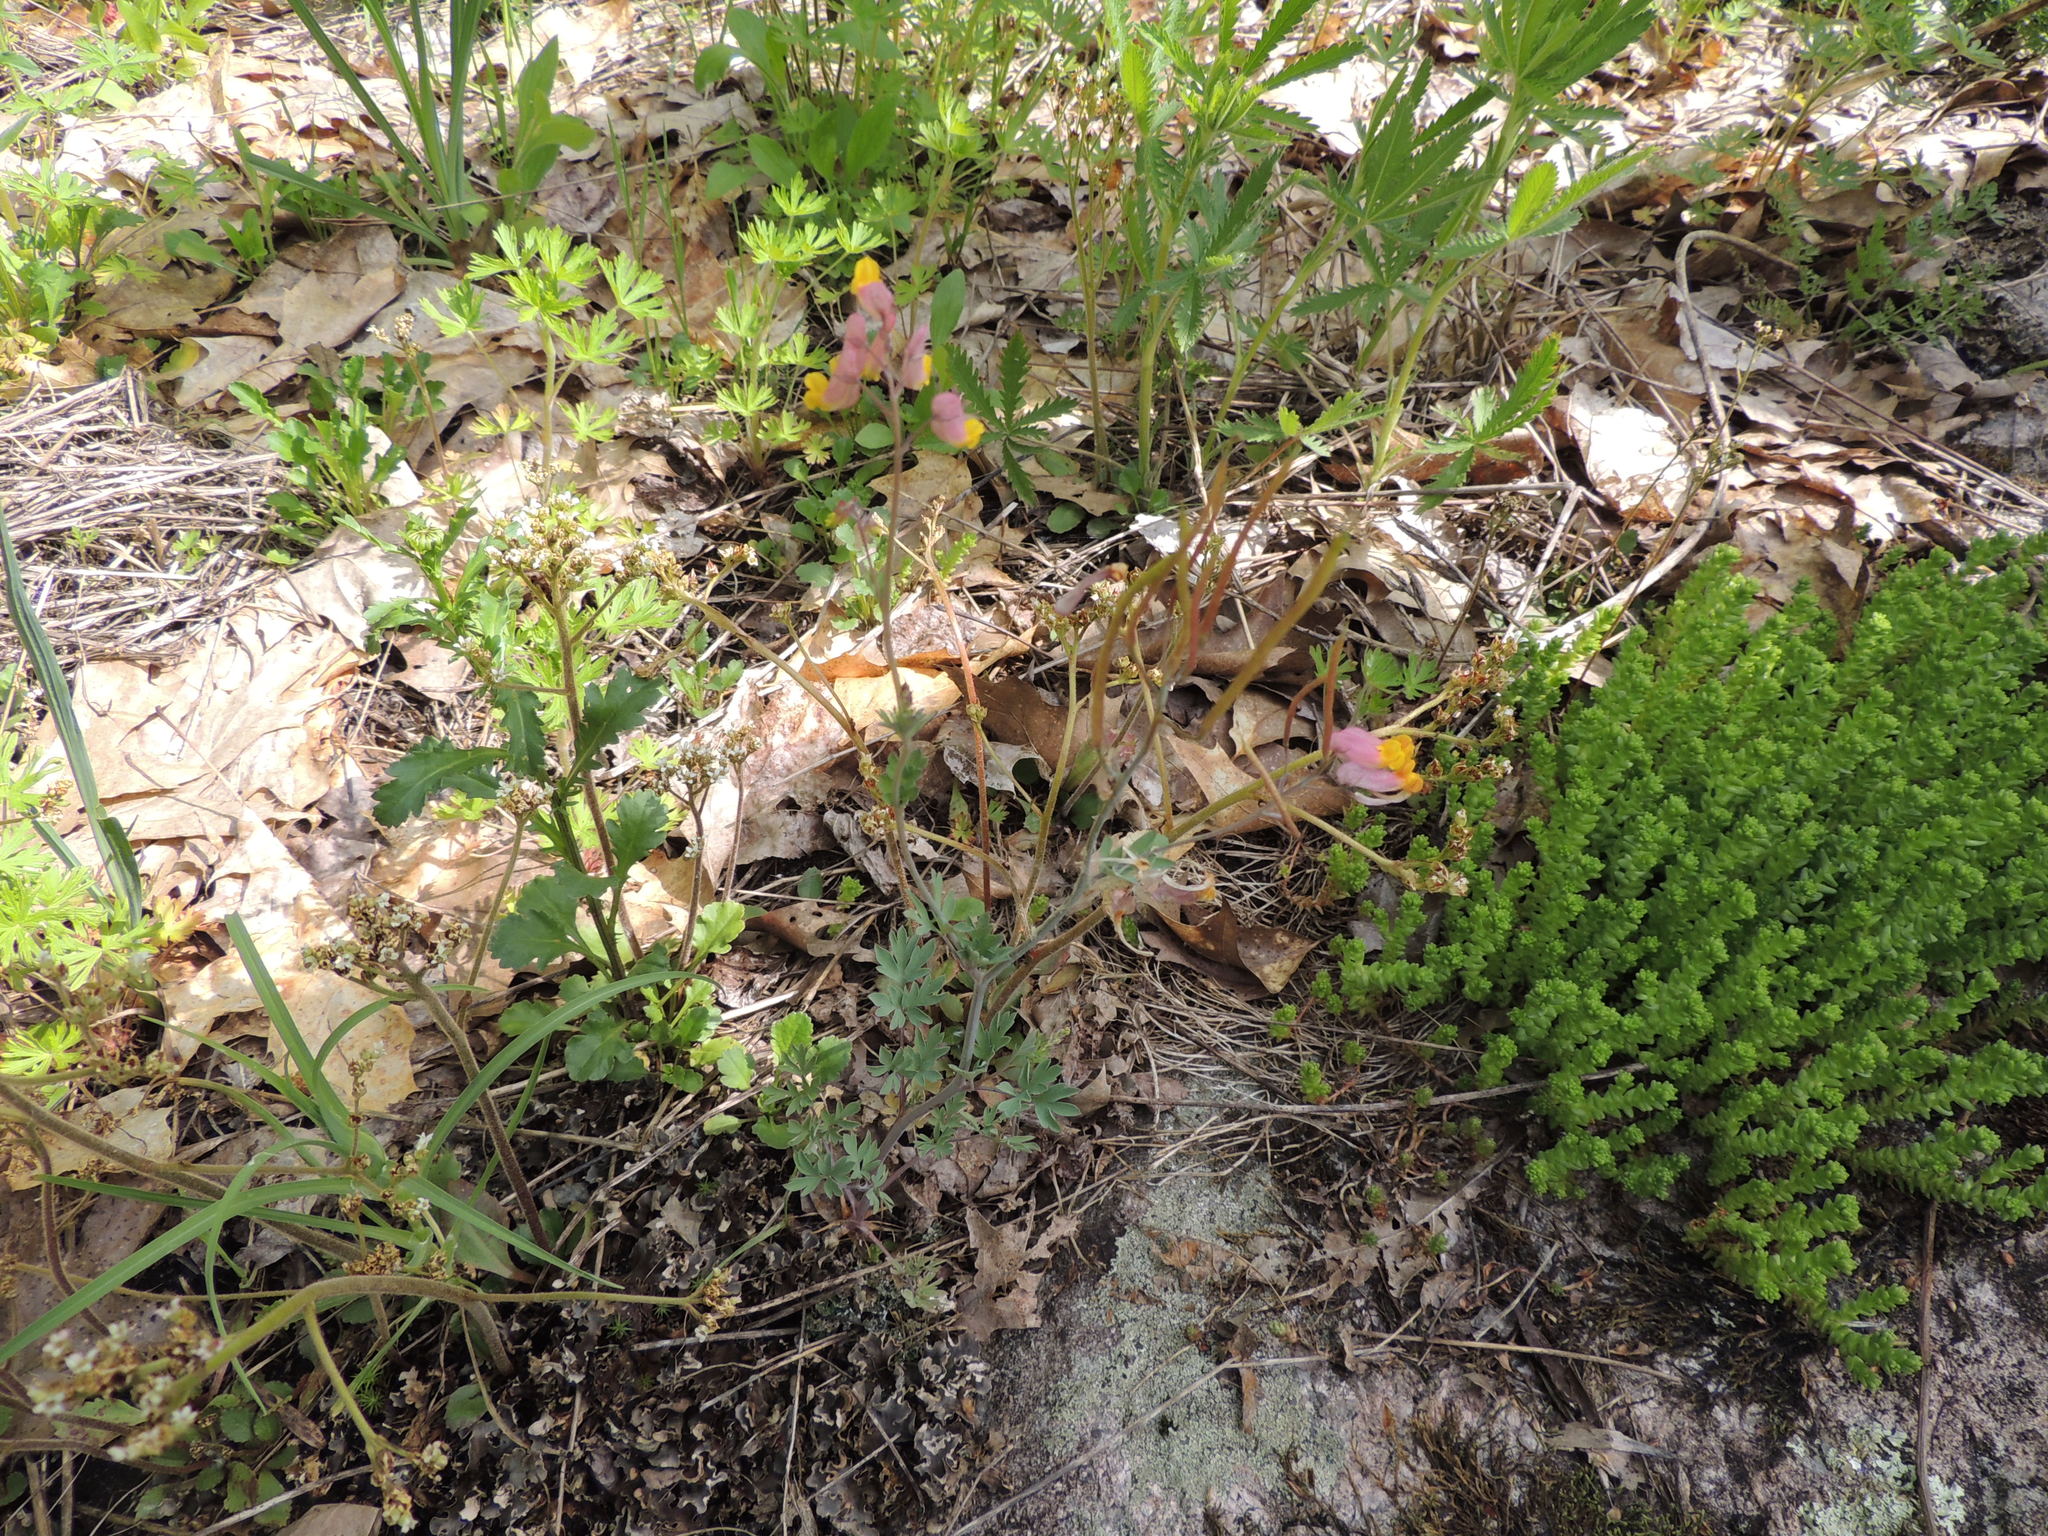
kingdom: Plantae
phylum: Tracheophyta
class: Magnoliopsida
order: Ranunculales
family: Papaveraceae
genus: Capnoides
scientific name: Capnoides sempervirens
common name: Rock harlequin
